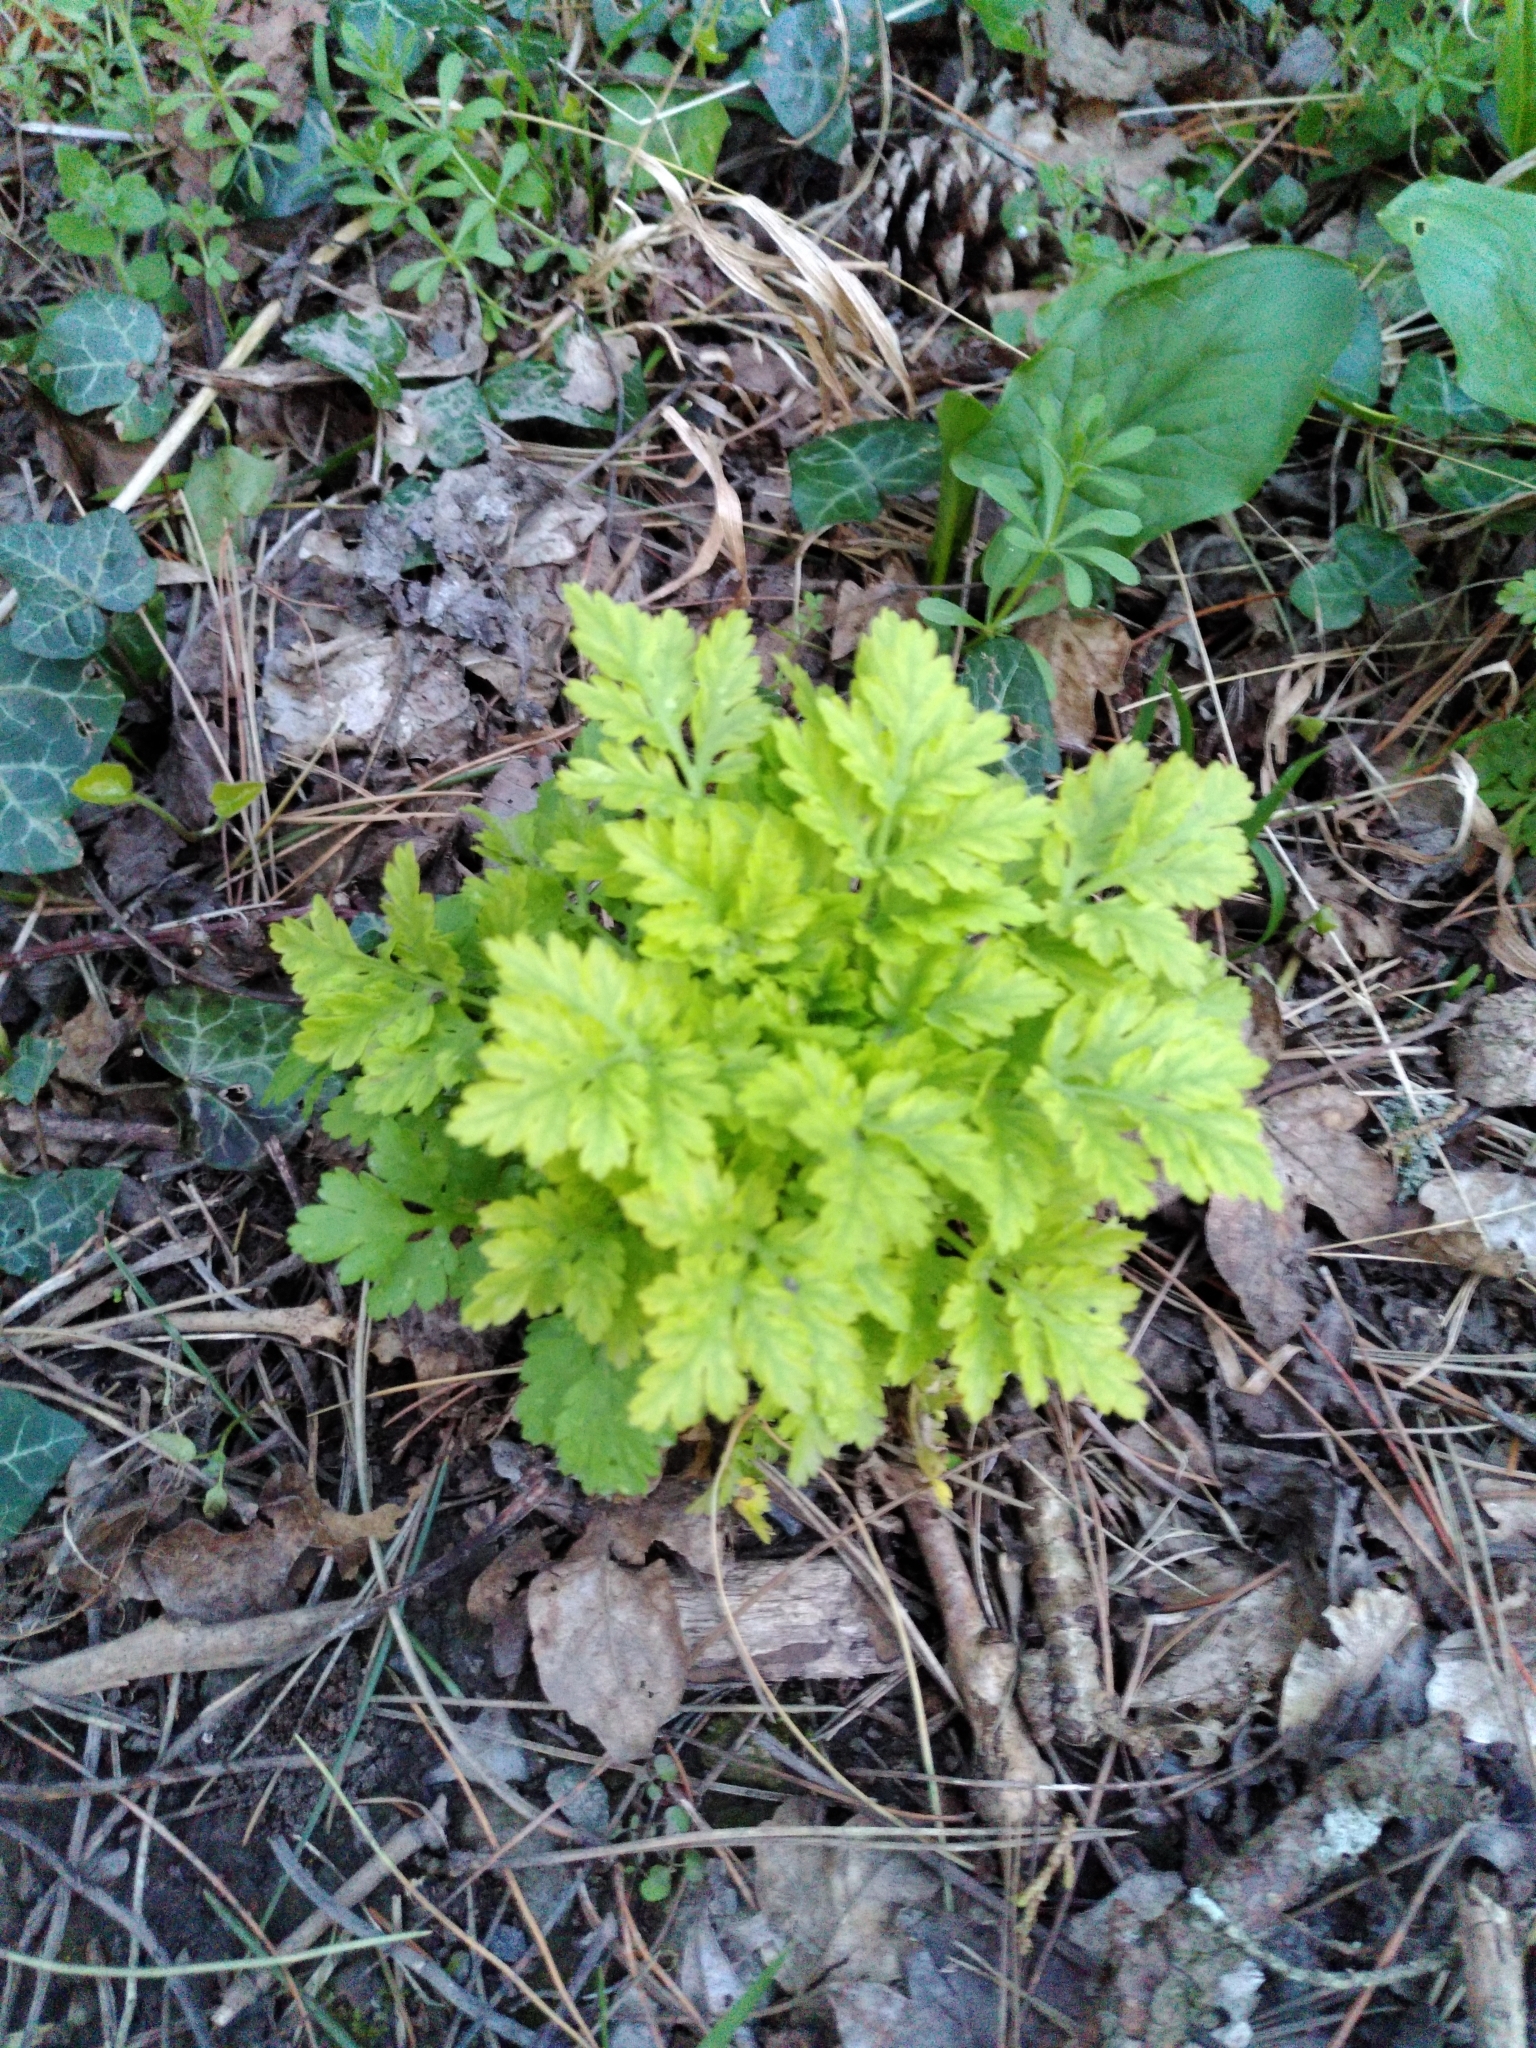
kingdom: Plantae
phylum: Tracheophyta
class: Magnoliopsida
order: Asterales
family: Asteraceae
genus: Tanacetum
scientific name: Tanacetum parthenium
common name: Feverfew
